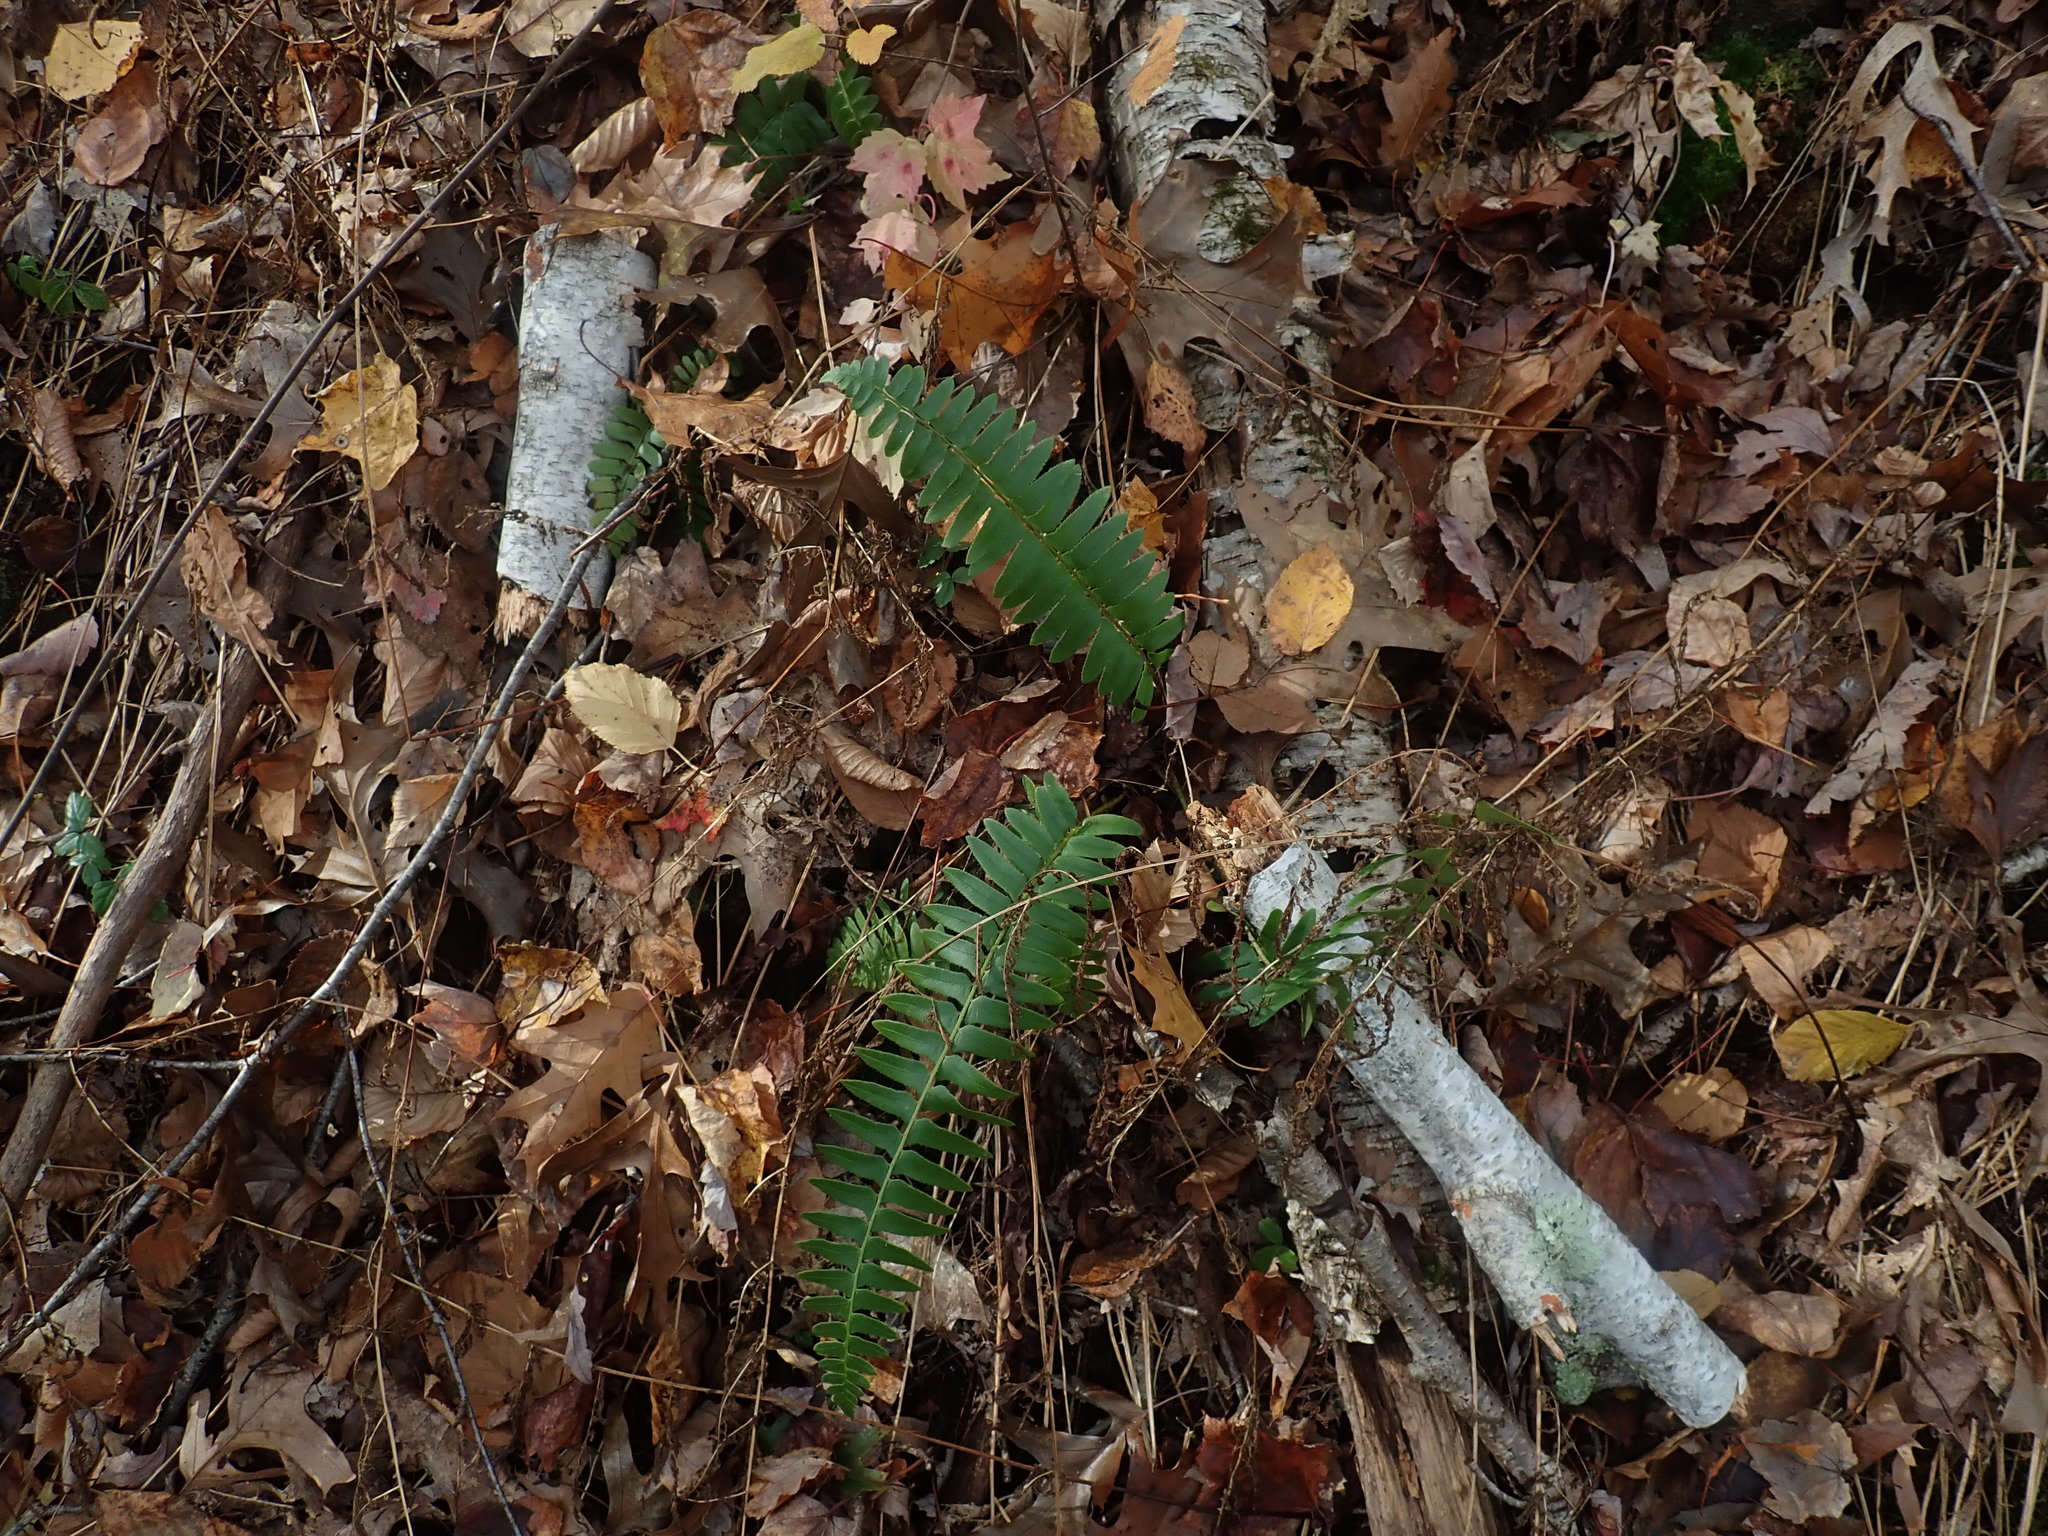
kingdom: Plantae
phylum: Tracheophyta
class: Polypodiopsida
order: Polypodiales
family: Dryopteridaceae
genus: Polystichum
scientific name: Polystichum acrostichoides
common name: Christmas fern
